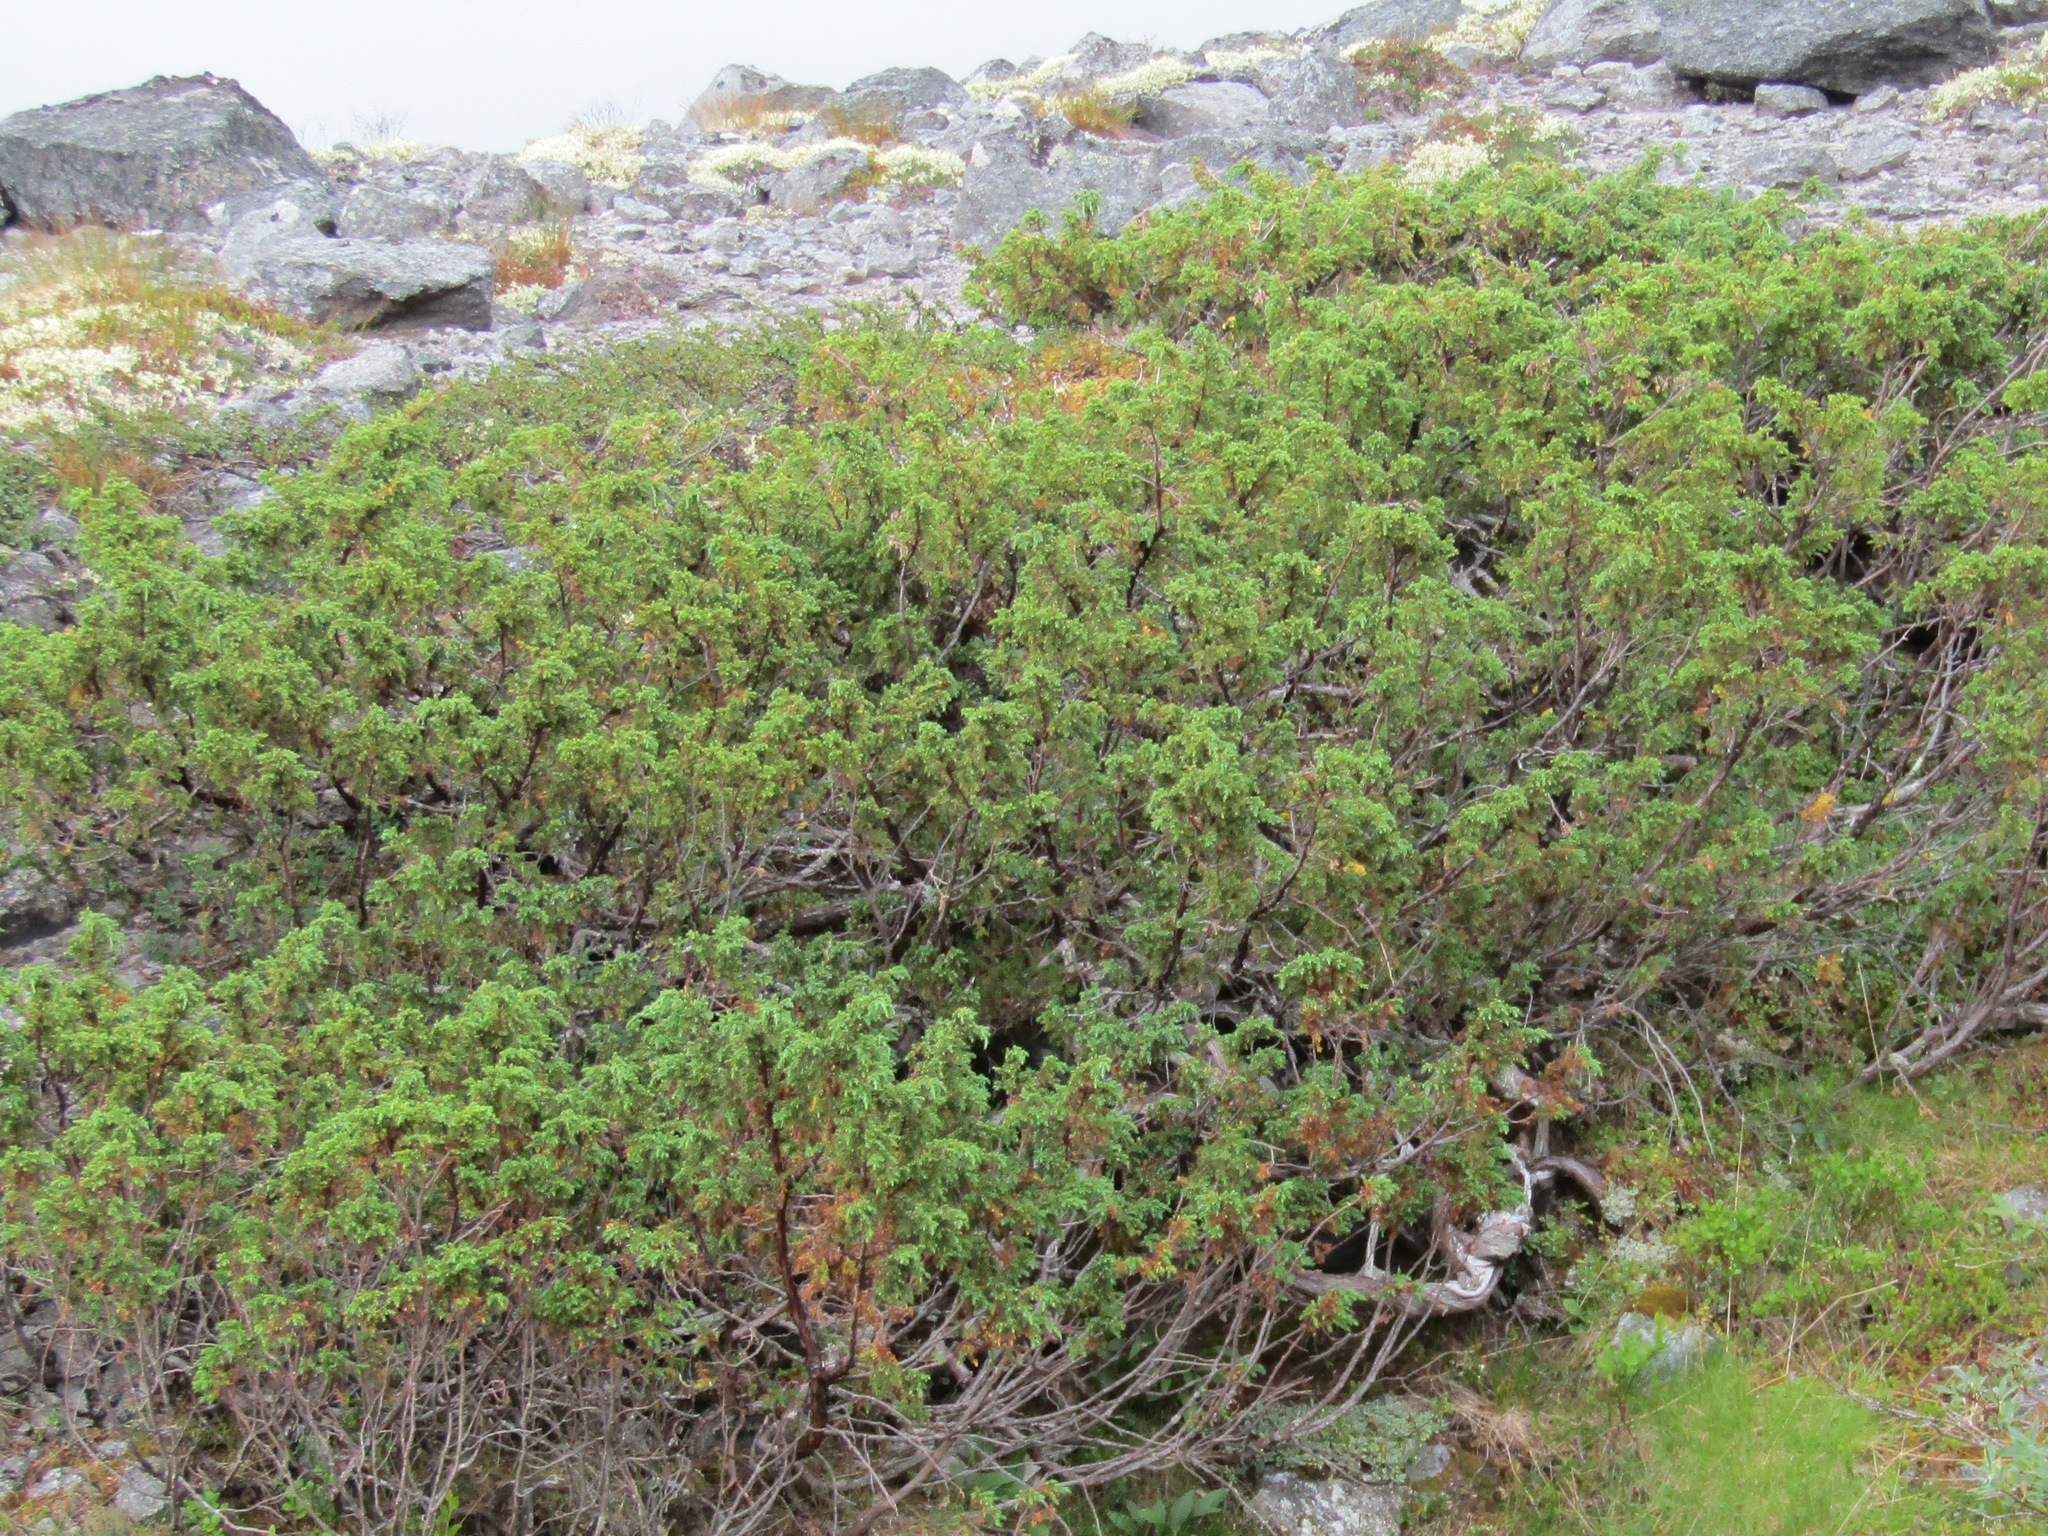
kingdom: Plantae
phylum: Tracheophyta
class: Pinopsida
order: Pinales
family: Cupressaceae
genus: Juniperus
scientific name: Juniperus communis
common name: Common juniper
